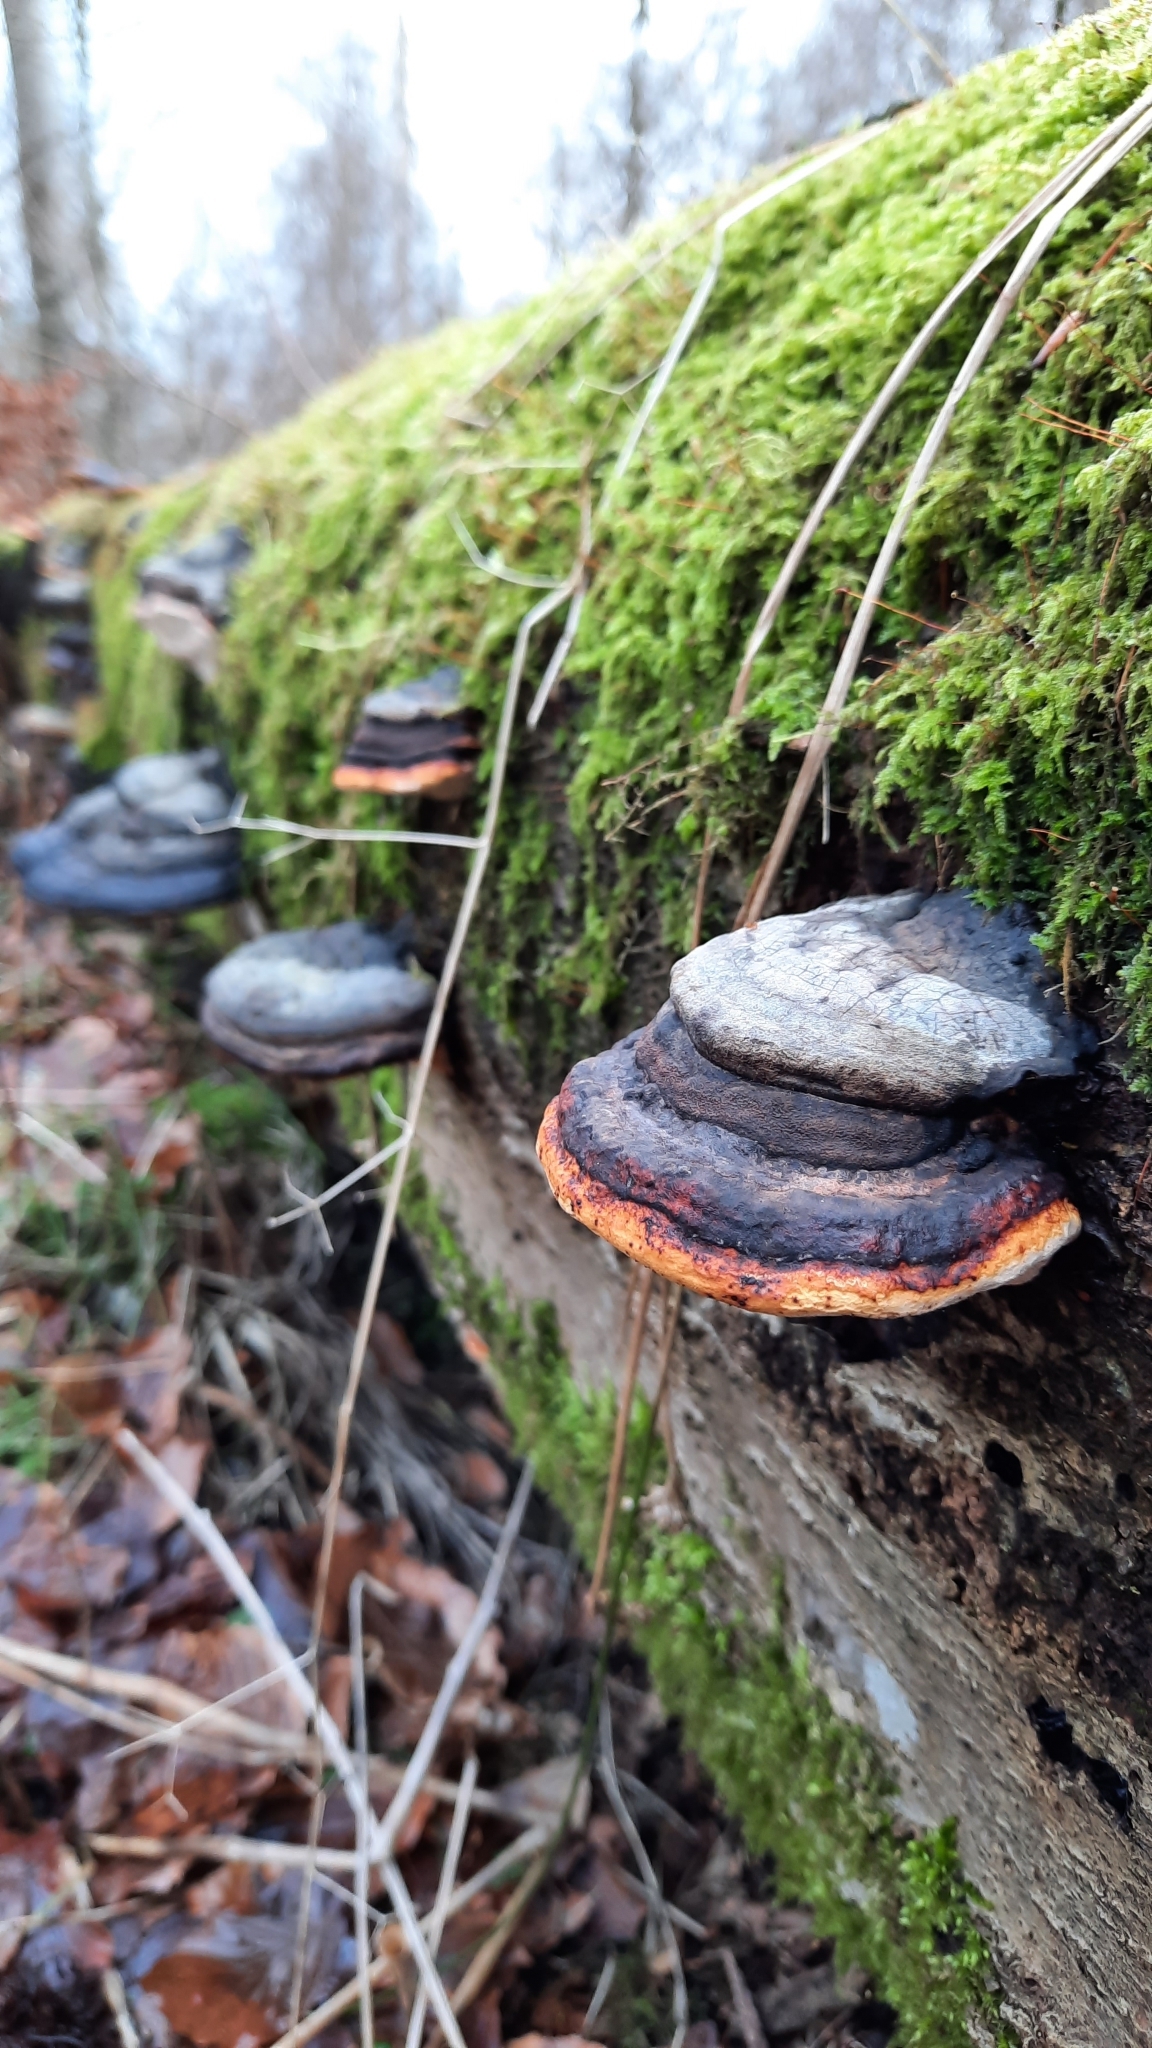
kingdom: Fungi
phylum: Basidiomycota
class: Agaricomycetes
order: Polyporales
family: Fomitopsidaceae
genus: Fomitopsis
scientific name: Fomitopsis pinicola
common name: Red-belted bracket
